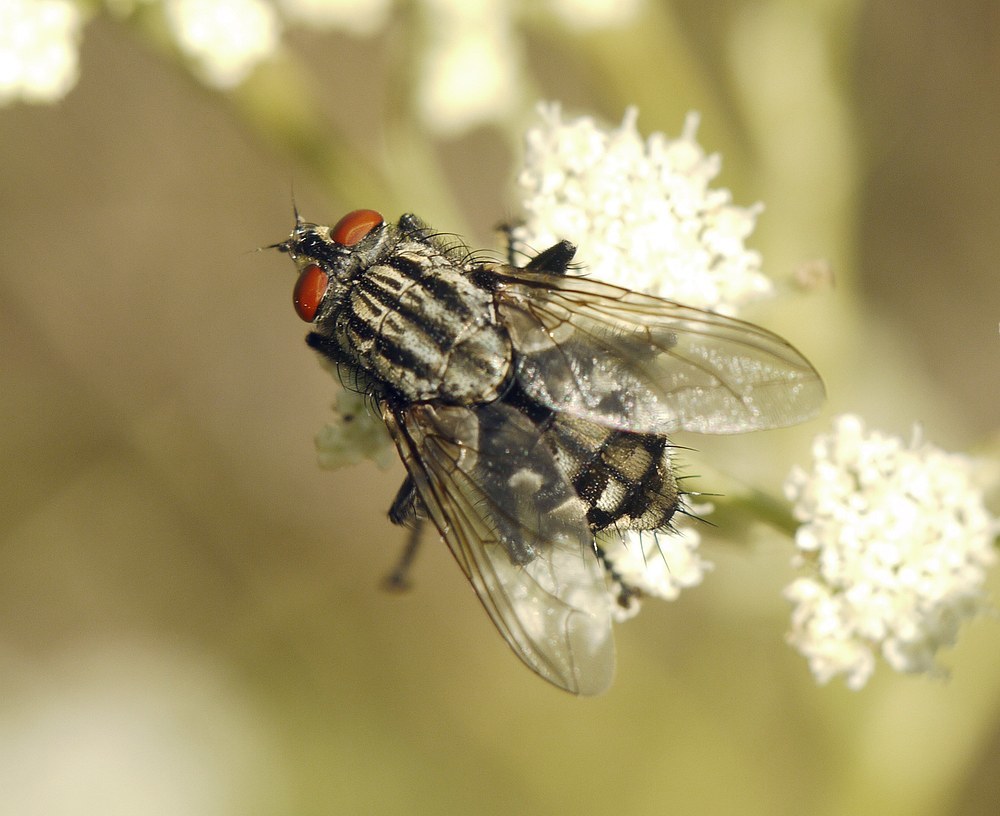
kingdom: Animalia
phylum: Arthropoda
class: Insecta
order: Diptera
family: Sarcophagidae
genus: Sarcophaga
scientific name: Sarcophaga
